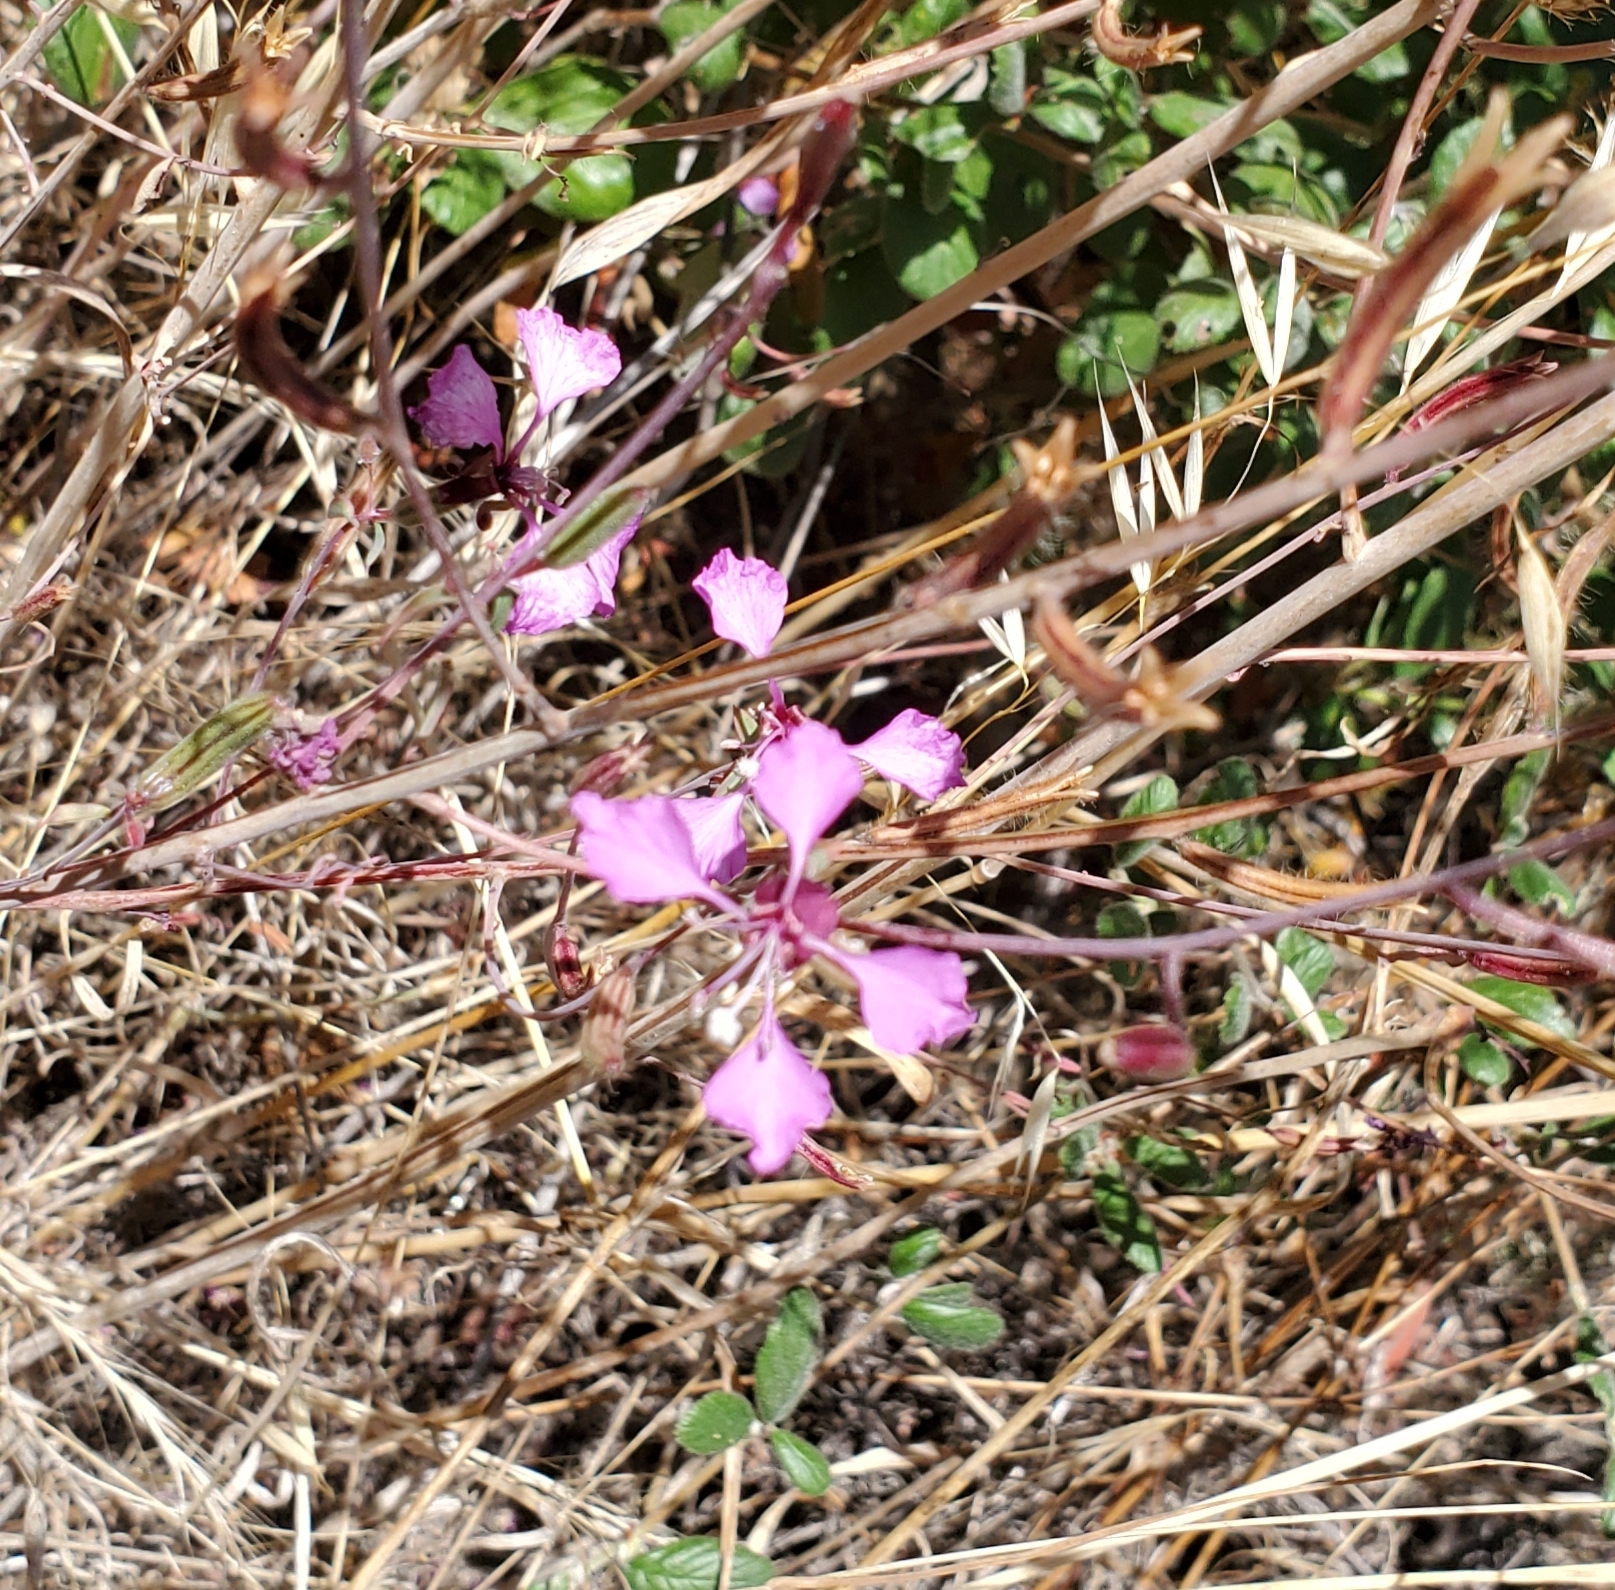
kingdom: Plantae
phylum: Tracheophyta
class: Magnoliopsida
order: Myrtales
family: Onagraceae
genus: Clarkia
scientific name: Clarkia unguiculata
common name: Clarkia
